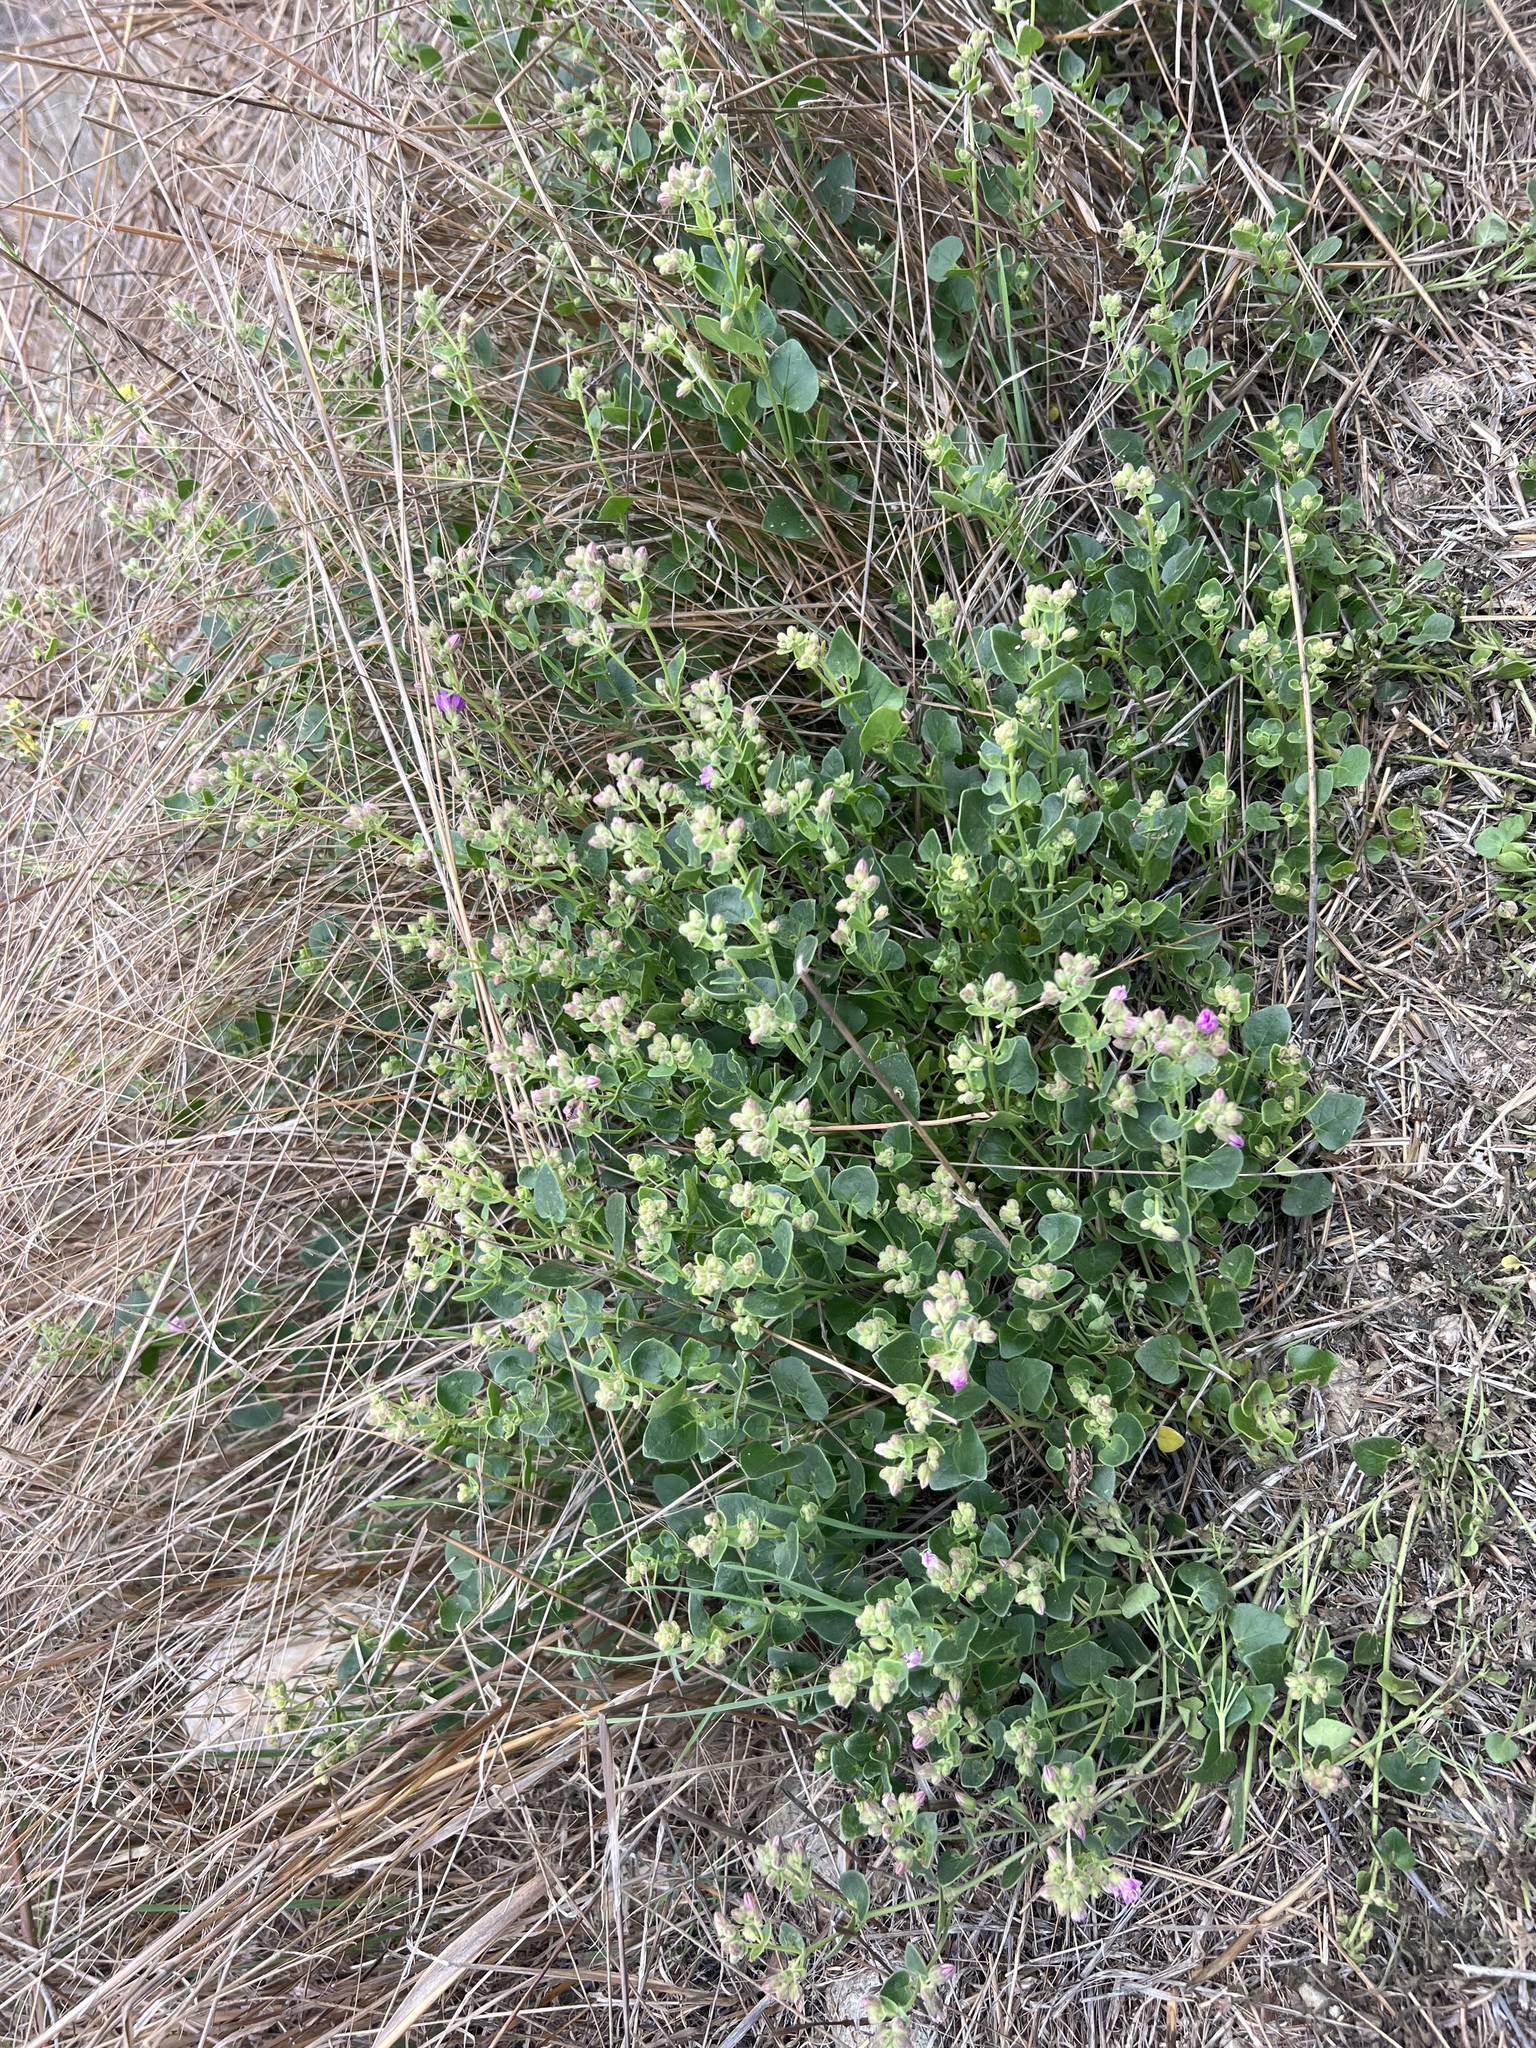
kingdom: Plantae
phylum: Tracheophyta
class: Magnoliopsida
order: Caryophyllales
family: Nyctaginaceae
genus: Mirabilis
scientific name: Mirabilis laevis
